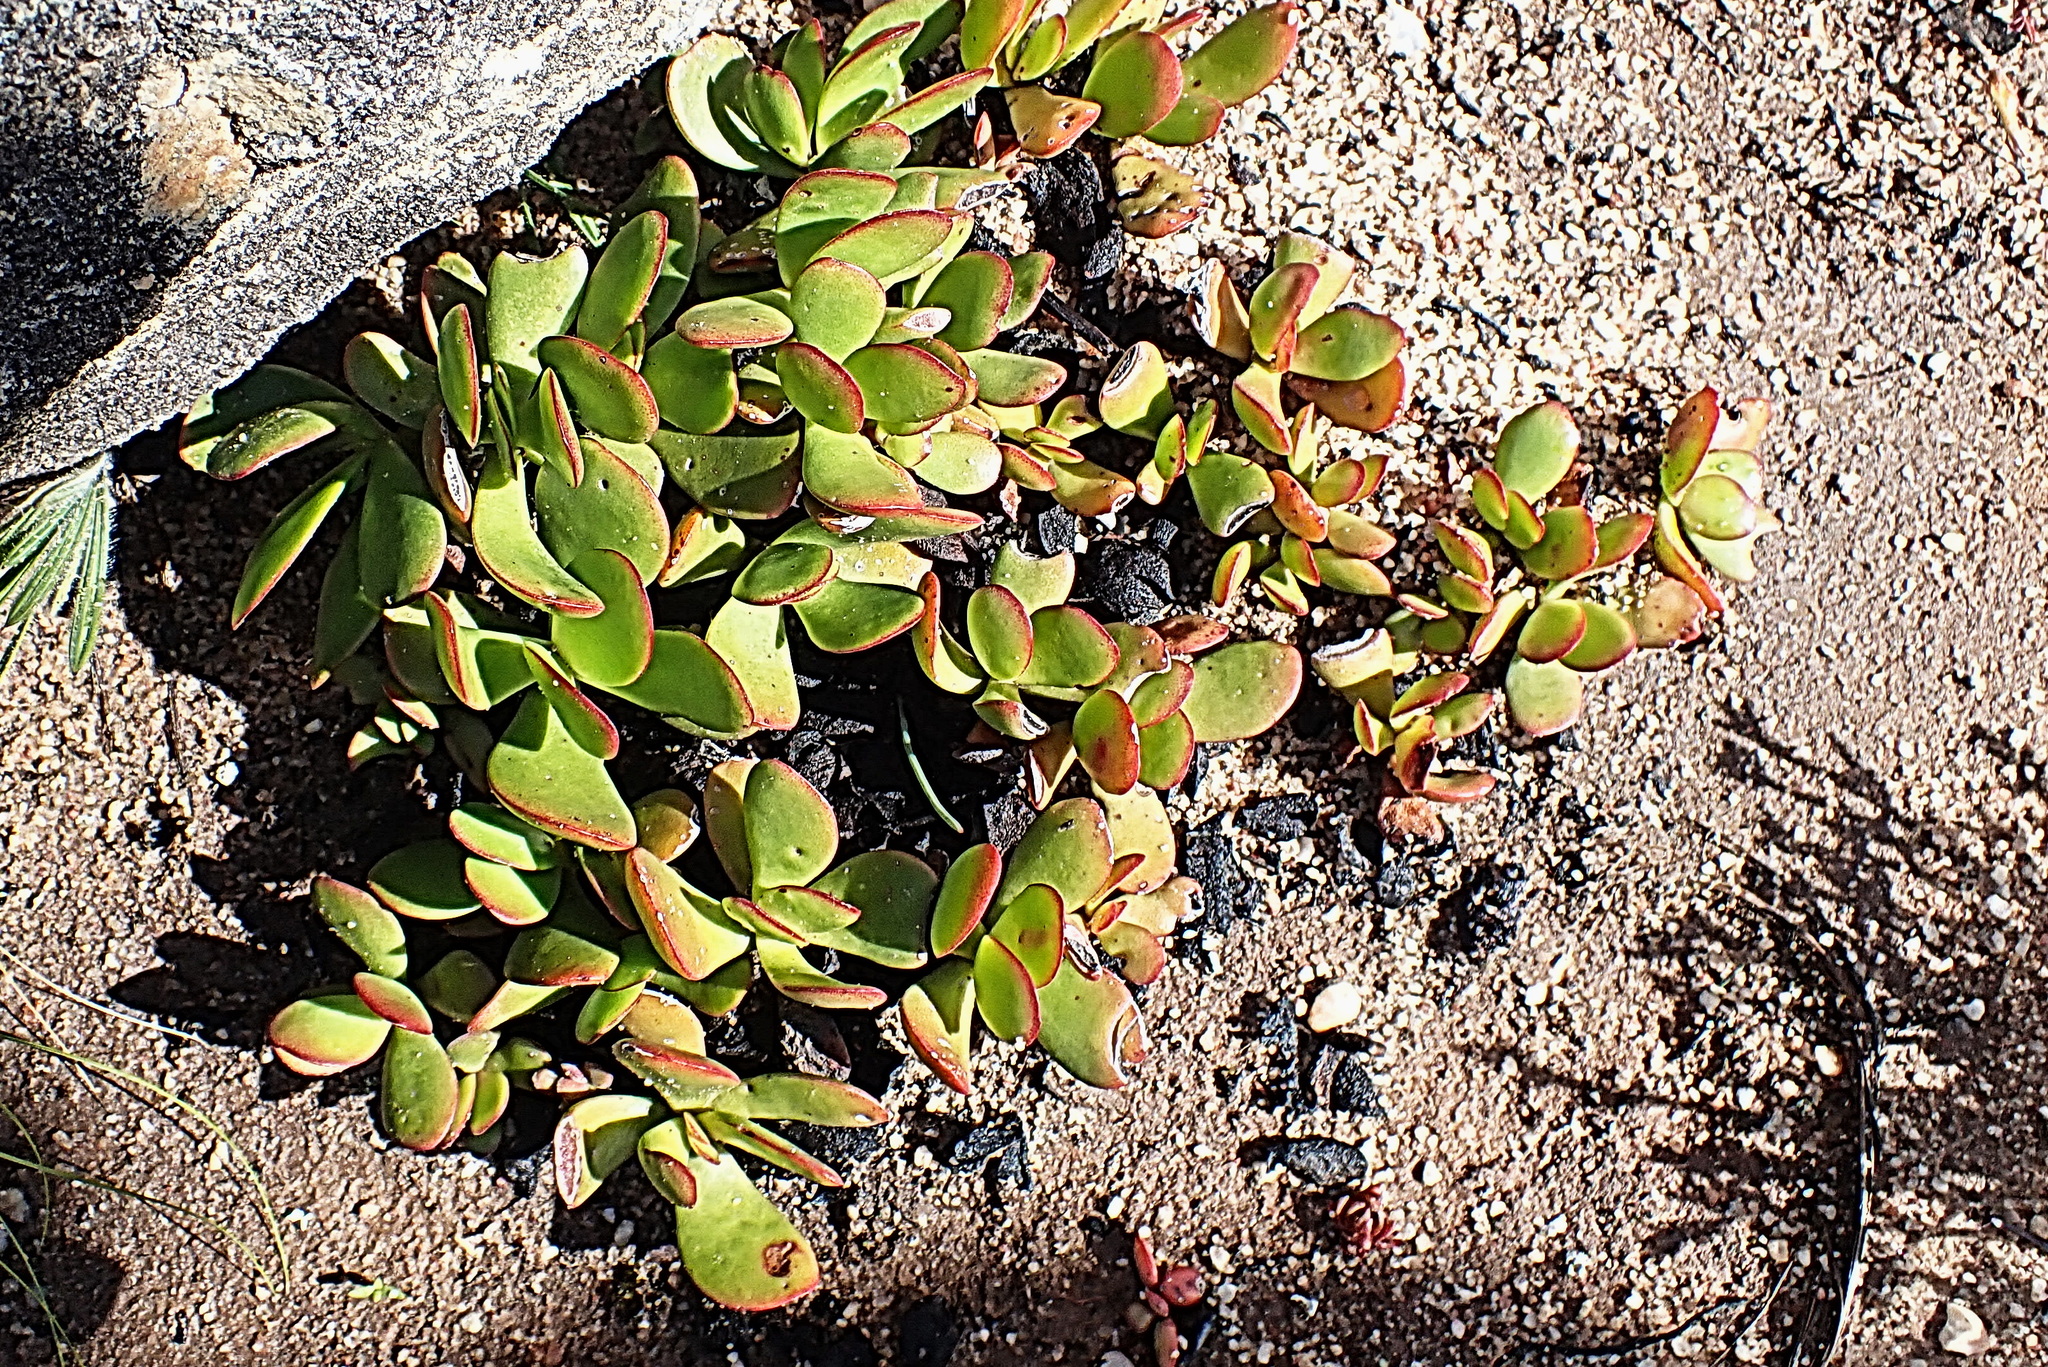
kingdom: Plantae
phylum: Tracheophyta
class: Magnoliopsida
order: Saxifragales
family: Crassulaceae
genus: Crassula
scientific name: Crassula nudicaulis
